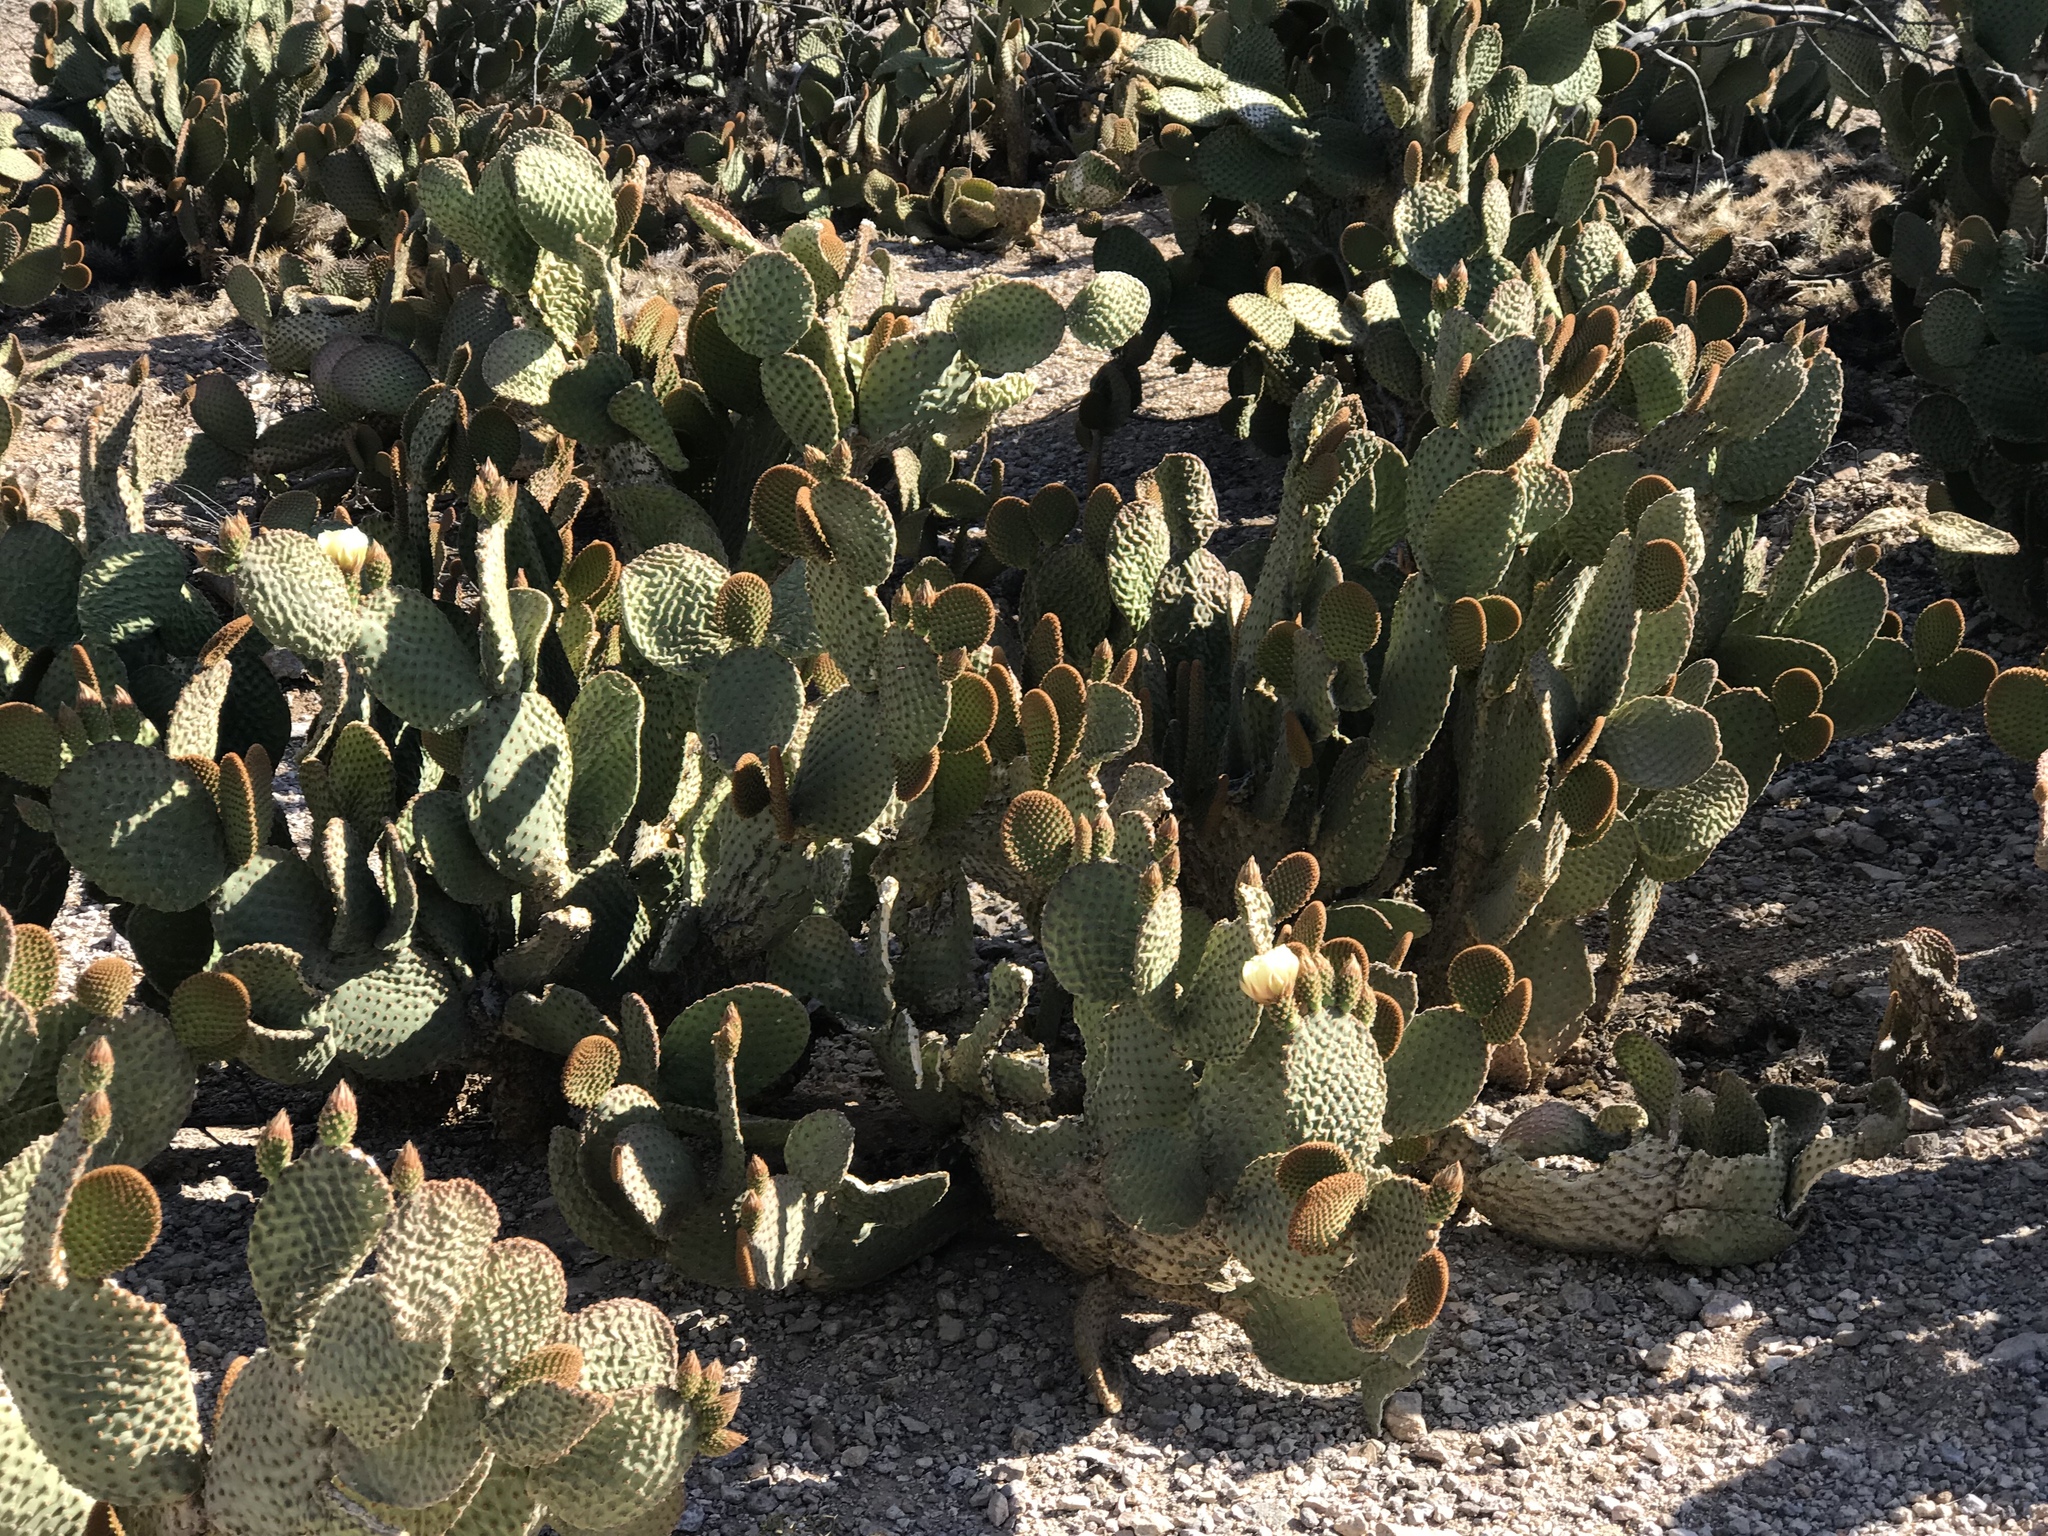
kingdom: Plantae
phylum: Tracheophyta
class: Magnoliopsida
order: Caryophyllales
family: Cactaceae
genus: Opuntia
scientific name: Opuntia microdasys
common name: Angel's-wings
